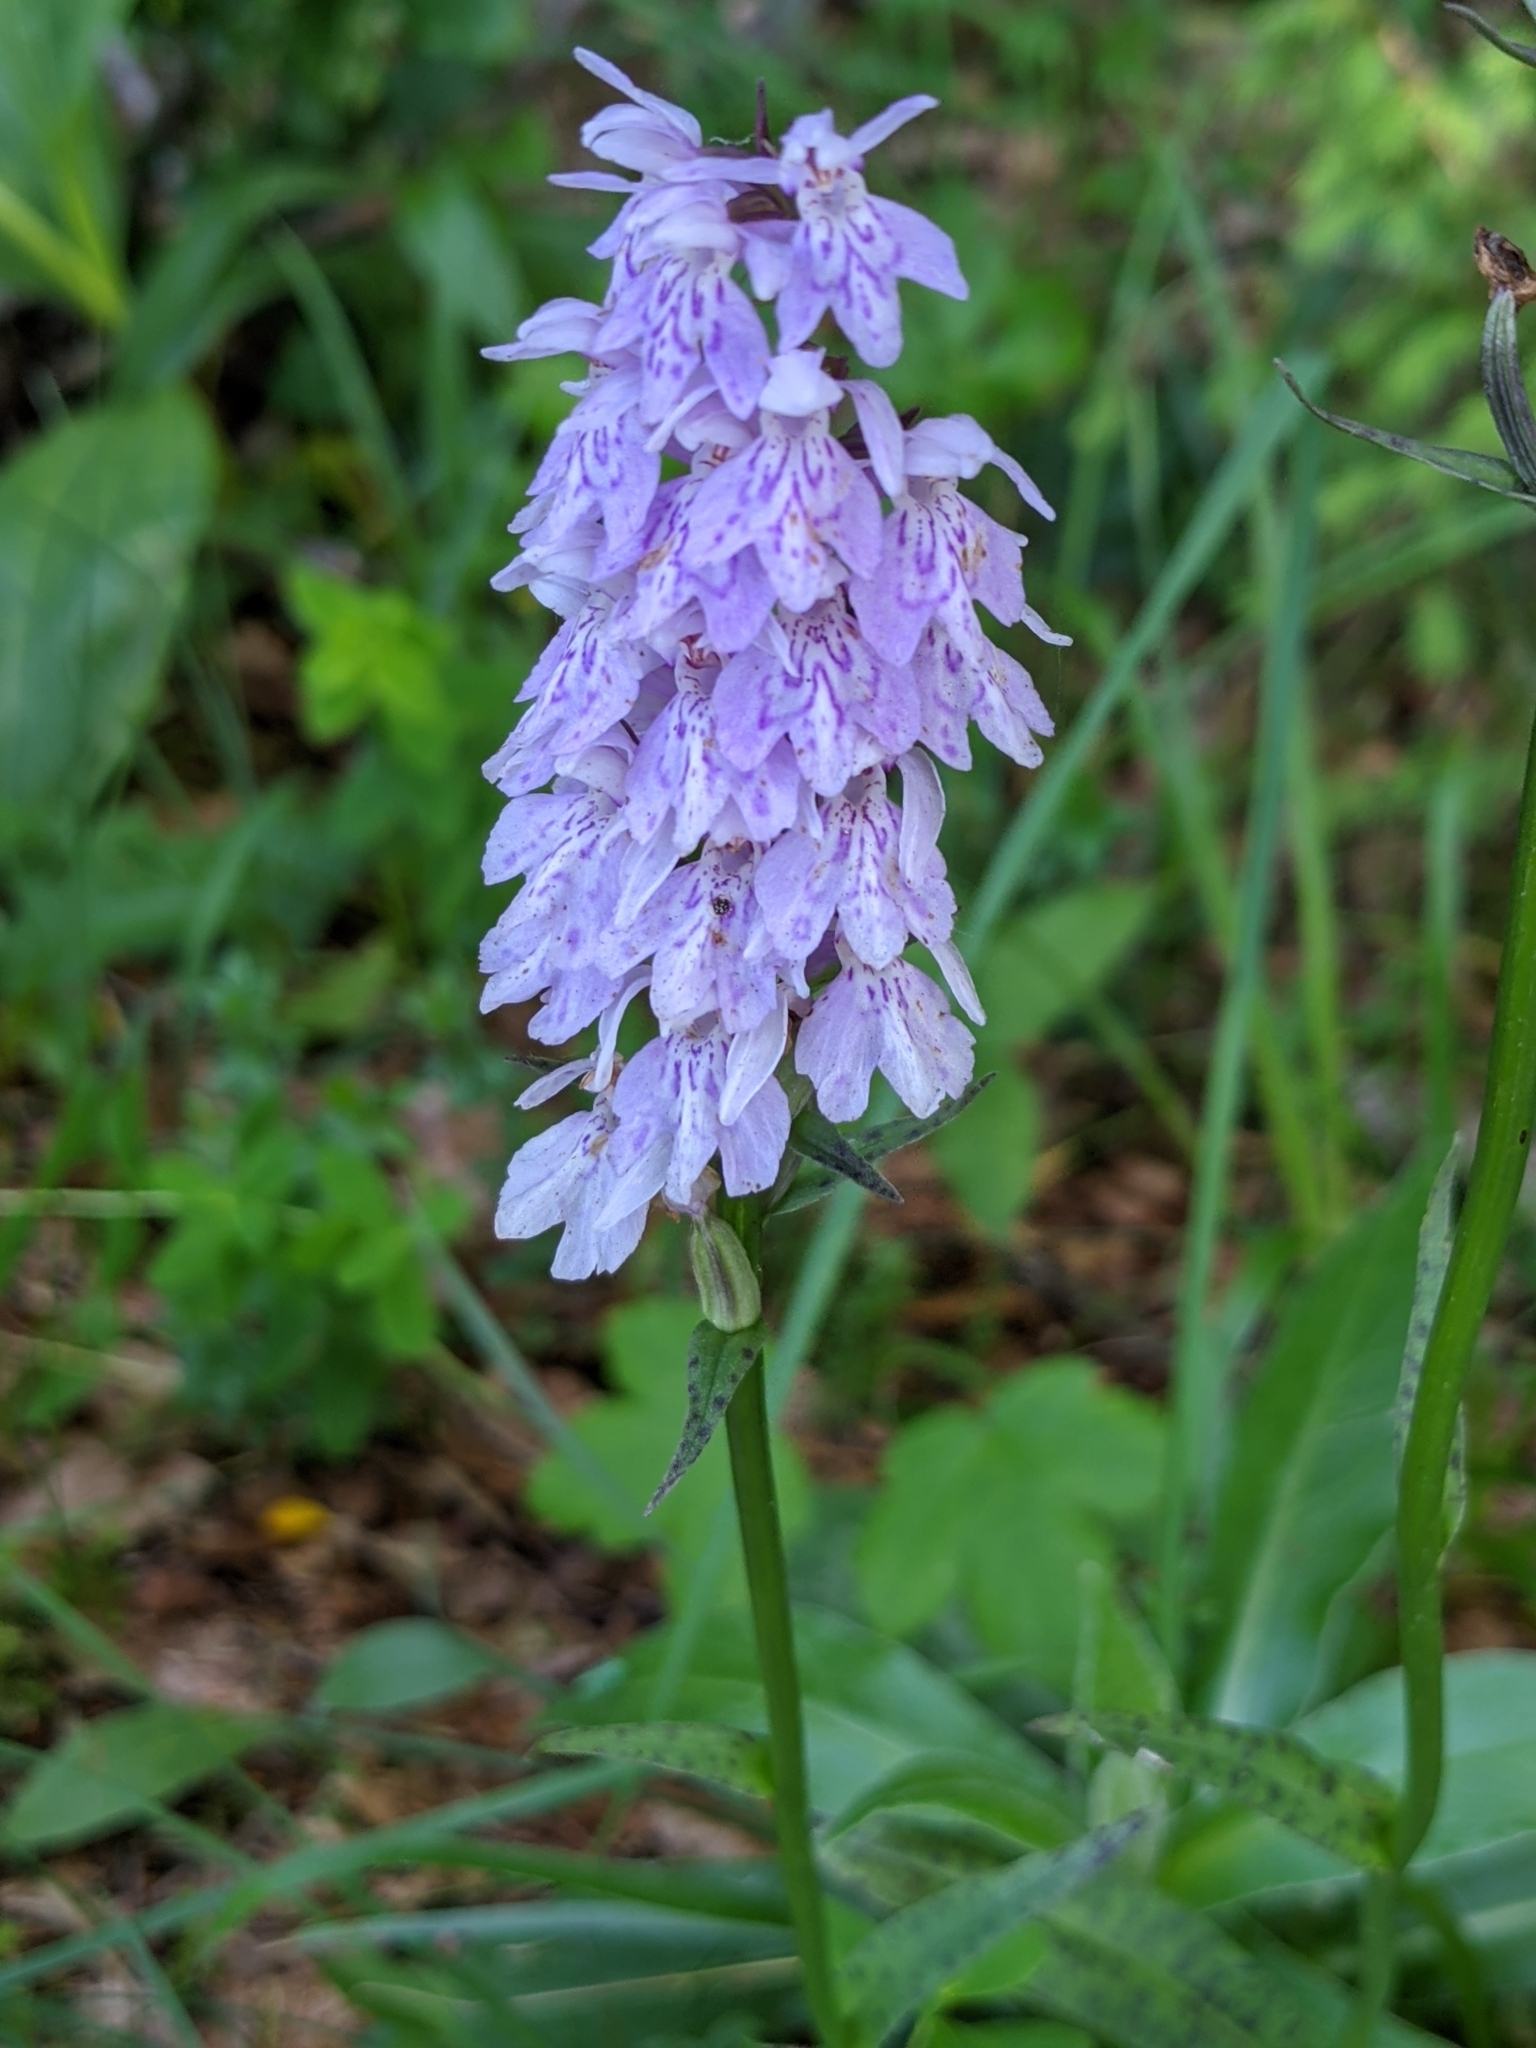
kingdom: Plantae
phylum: Tracheophyta
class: Liliopsida
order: Asparagales
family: Orchidaceae
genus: Dactylorhiza
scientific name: Dactylorhiza maculata
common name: Heath spotted-orchid
